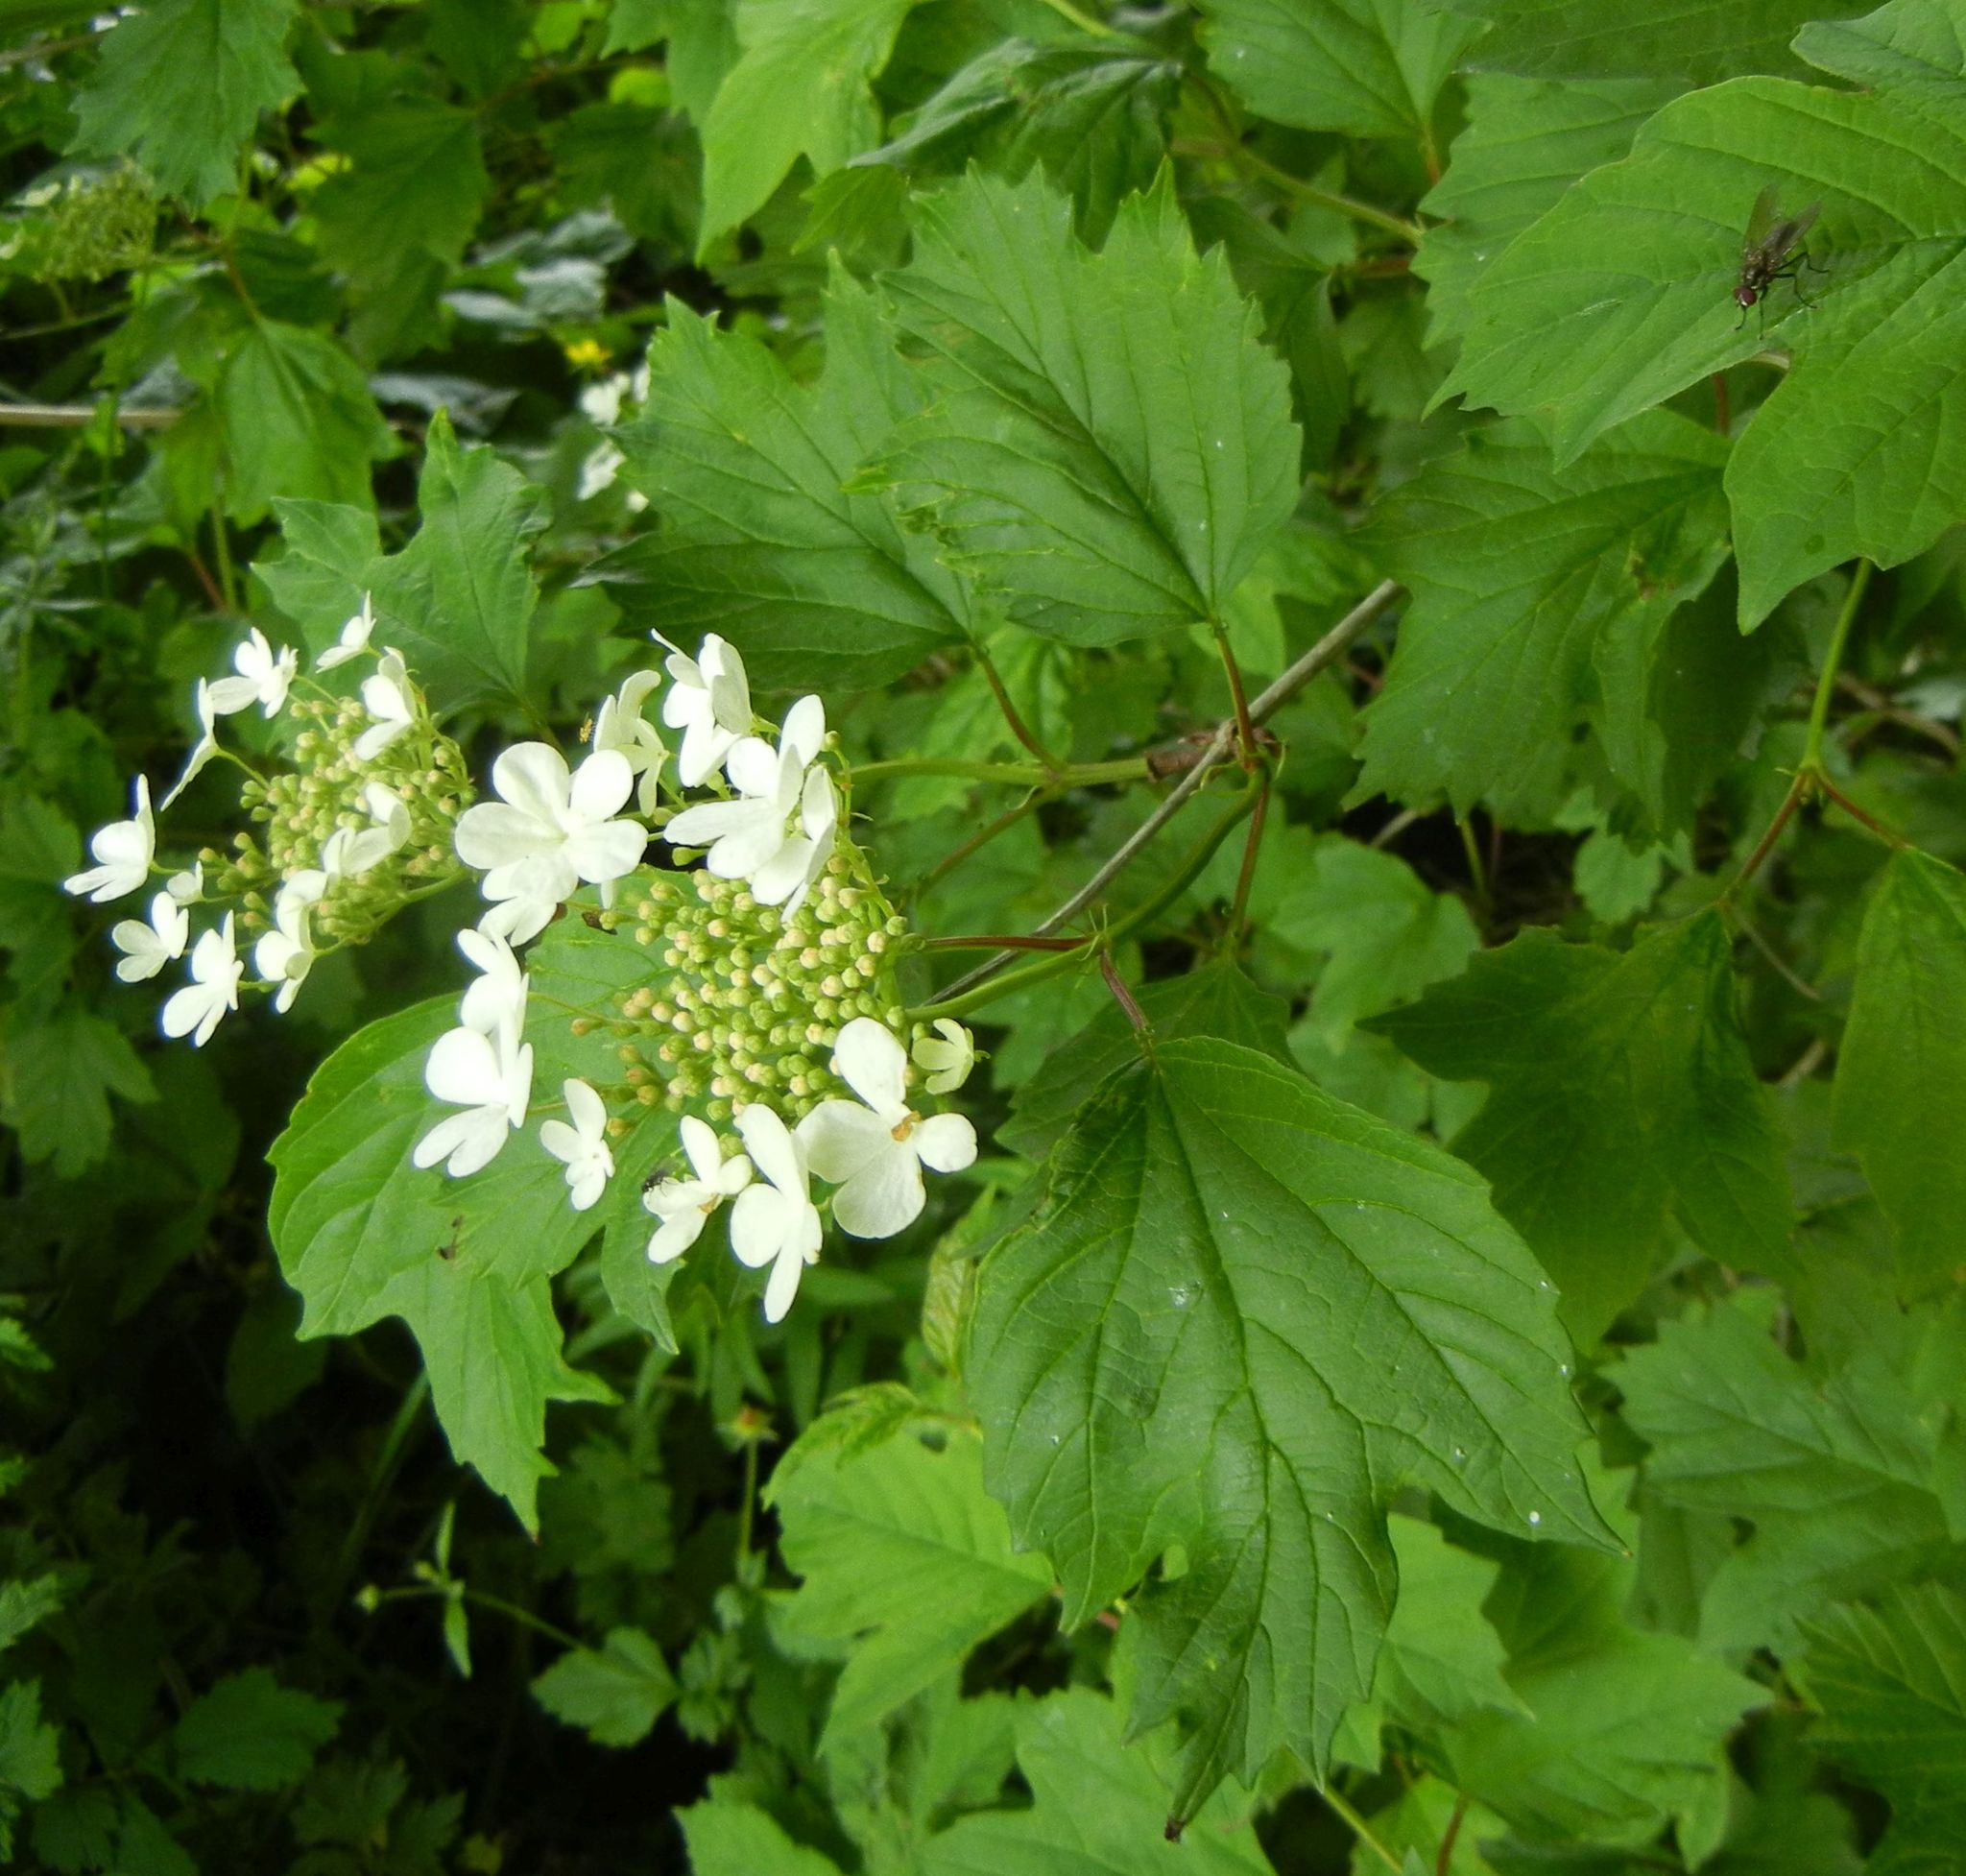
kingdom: Plantae
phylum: Tracheophyta
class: Magnoliopsida
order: Dipsacales
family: Viburnaceae
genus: Viburnum
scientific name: Viburnum opulus
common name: Guelder-rose
